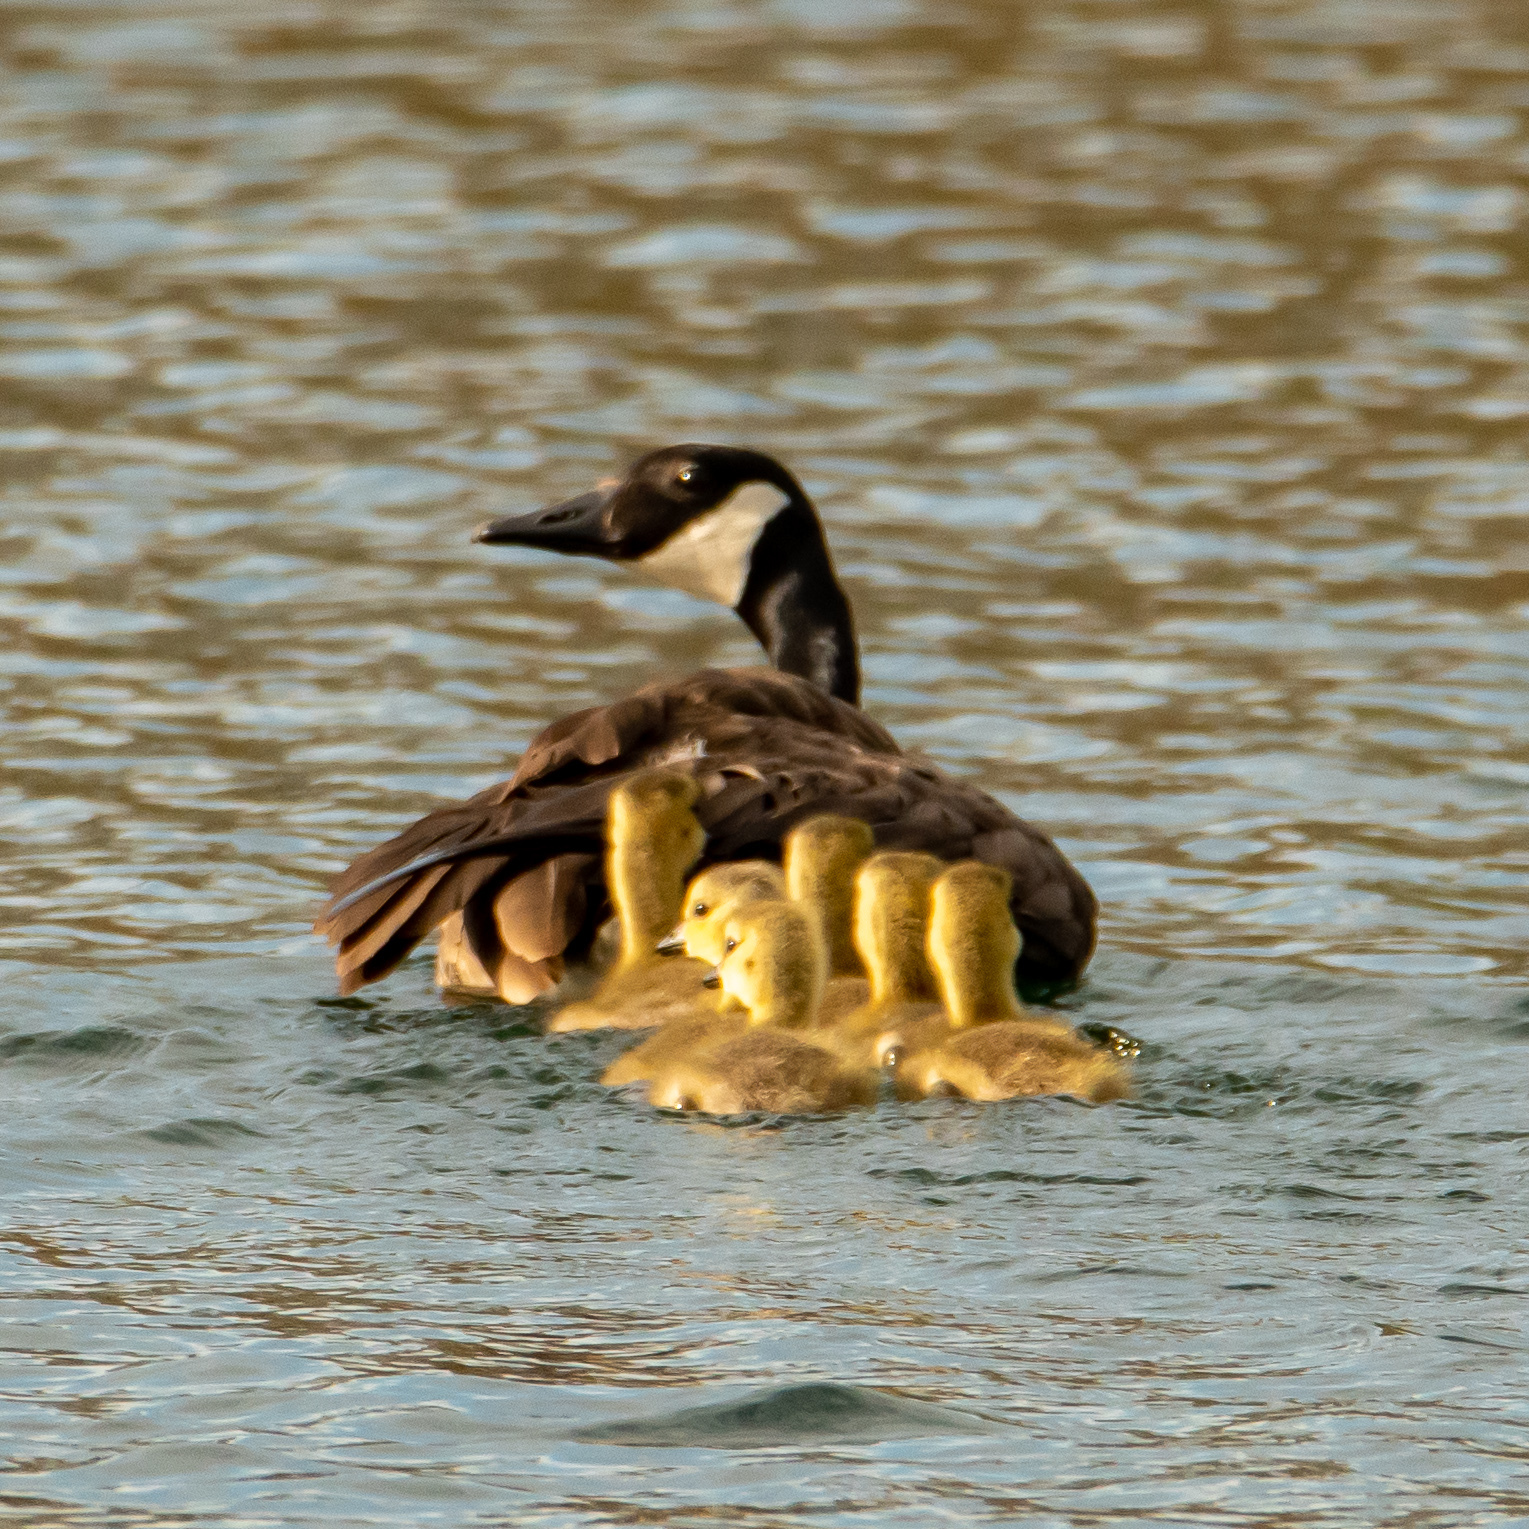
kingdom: Animalia
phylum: Chordata
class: Aves
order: Anseriformes
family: Anatidae
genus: Branta
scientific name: Branta canadensis
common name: Canada goose
